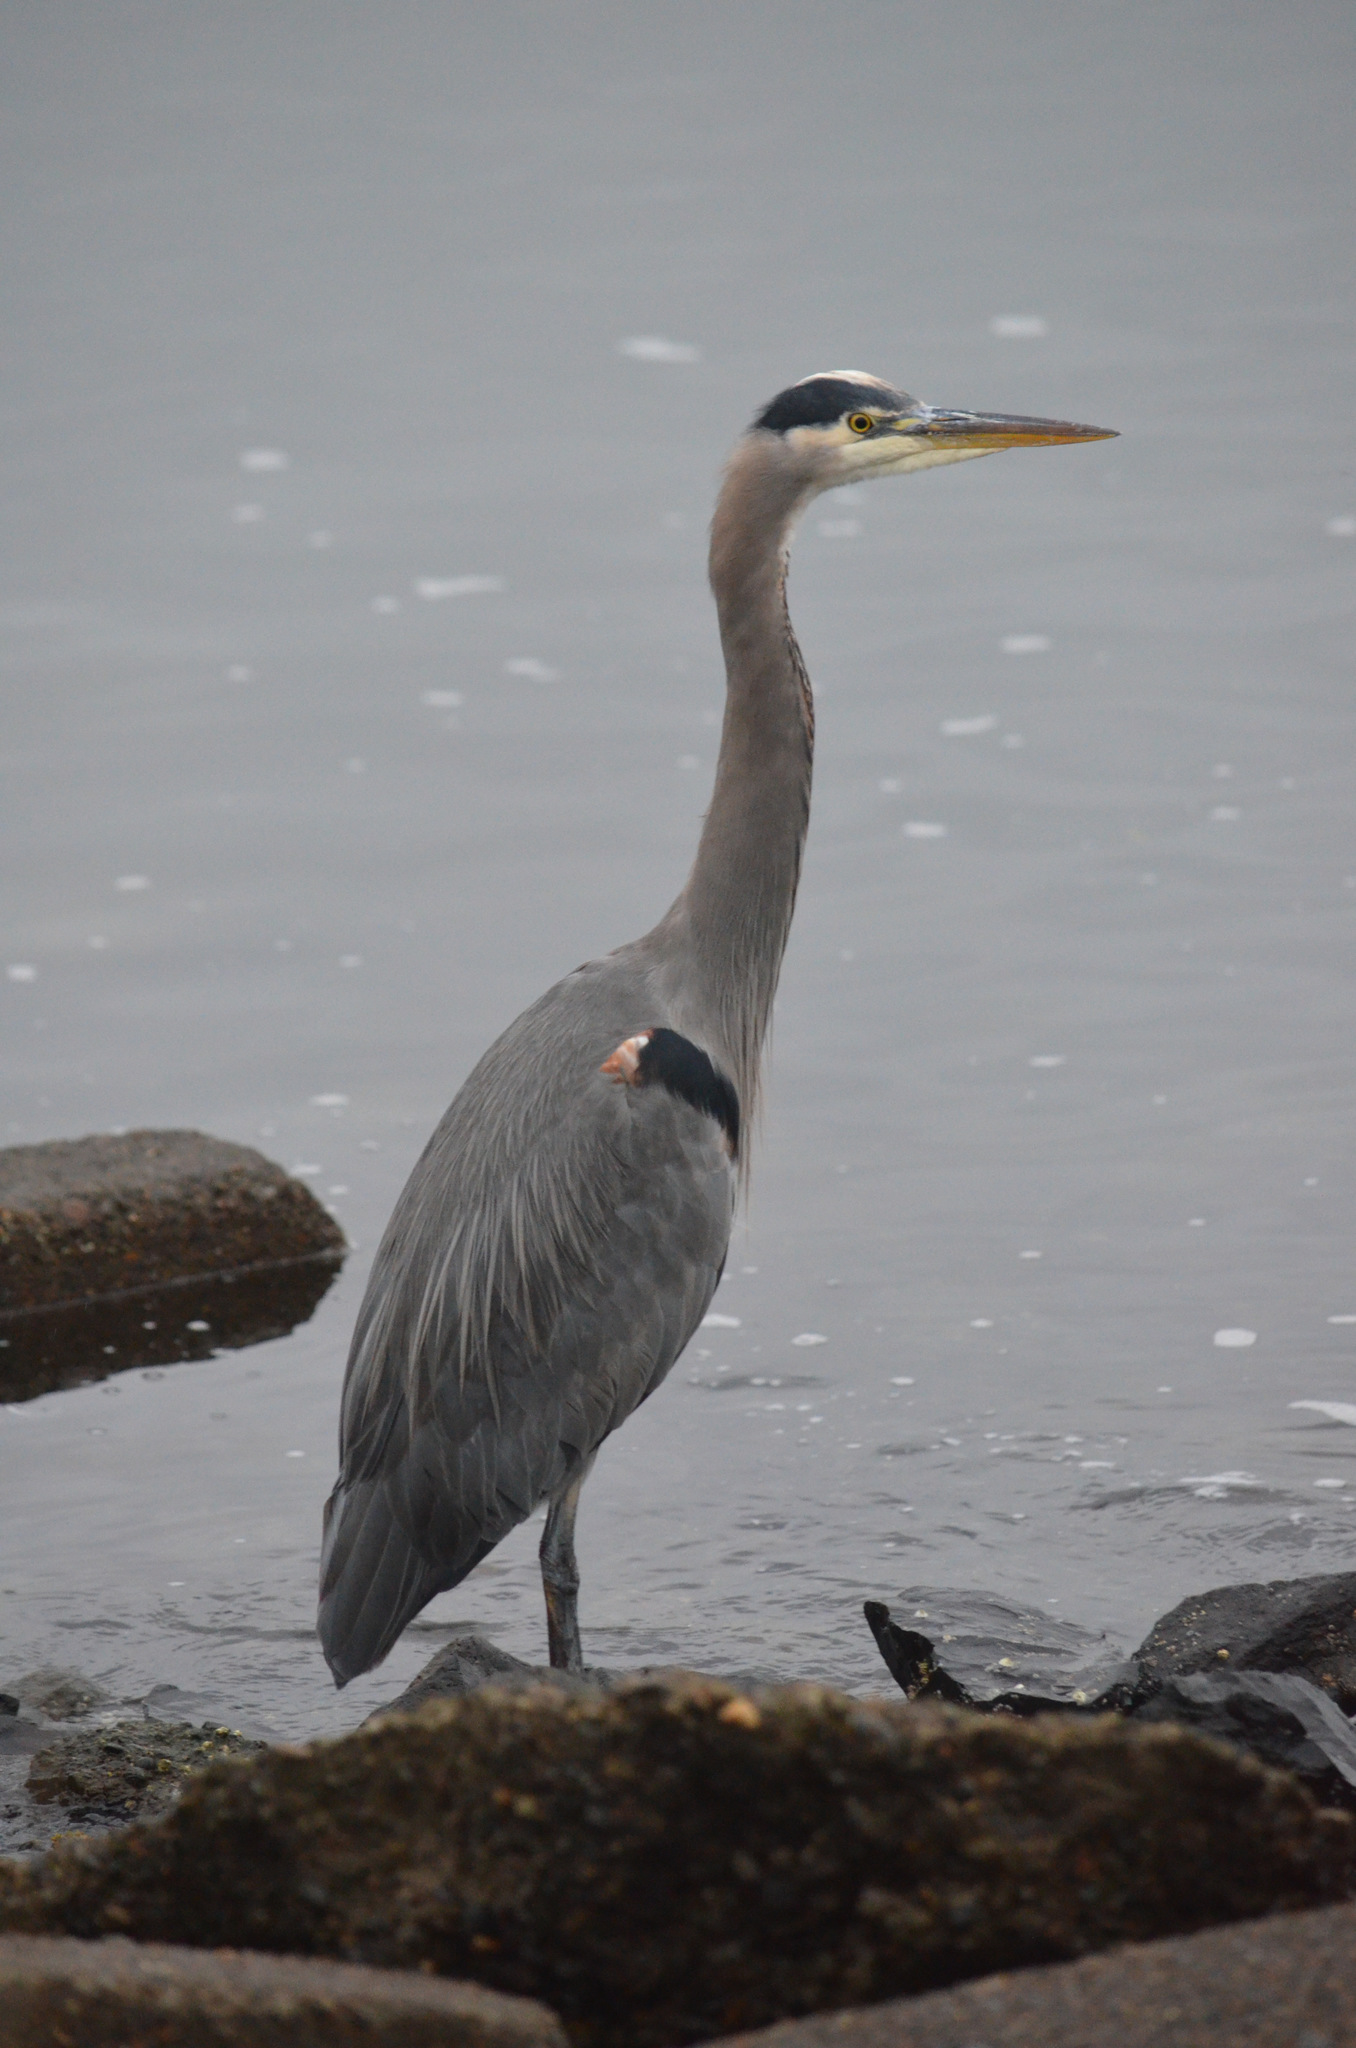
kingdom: Animalia
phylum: Chordata
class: Aves
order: Pelecaniformes
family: Ardeidae
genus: Ardea
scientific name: Ardea herodias
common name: Great blue heron
